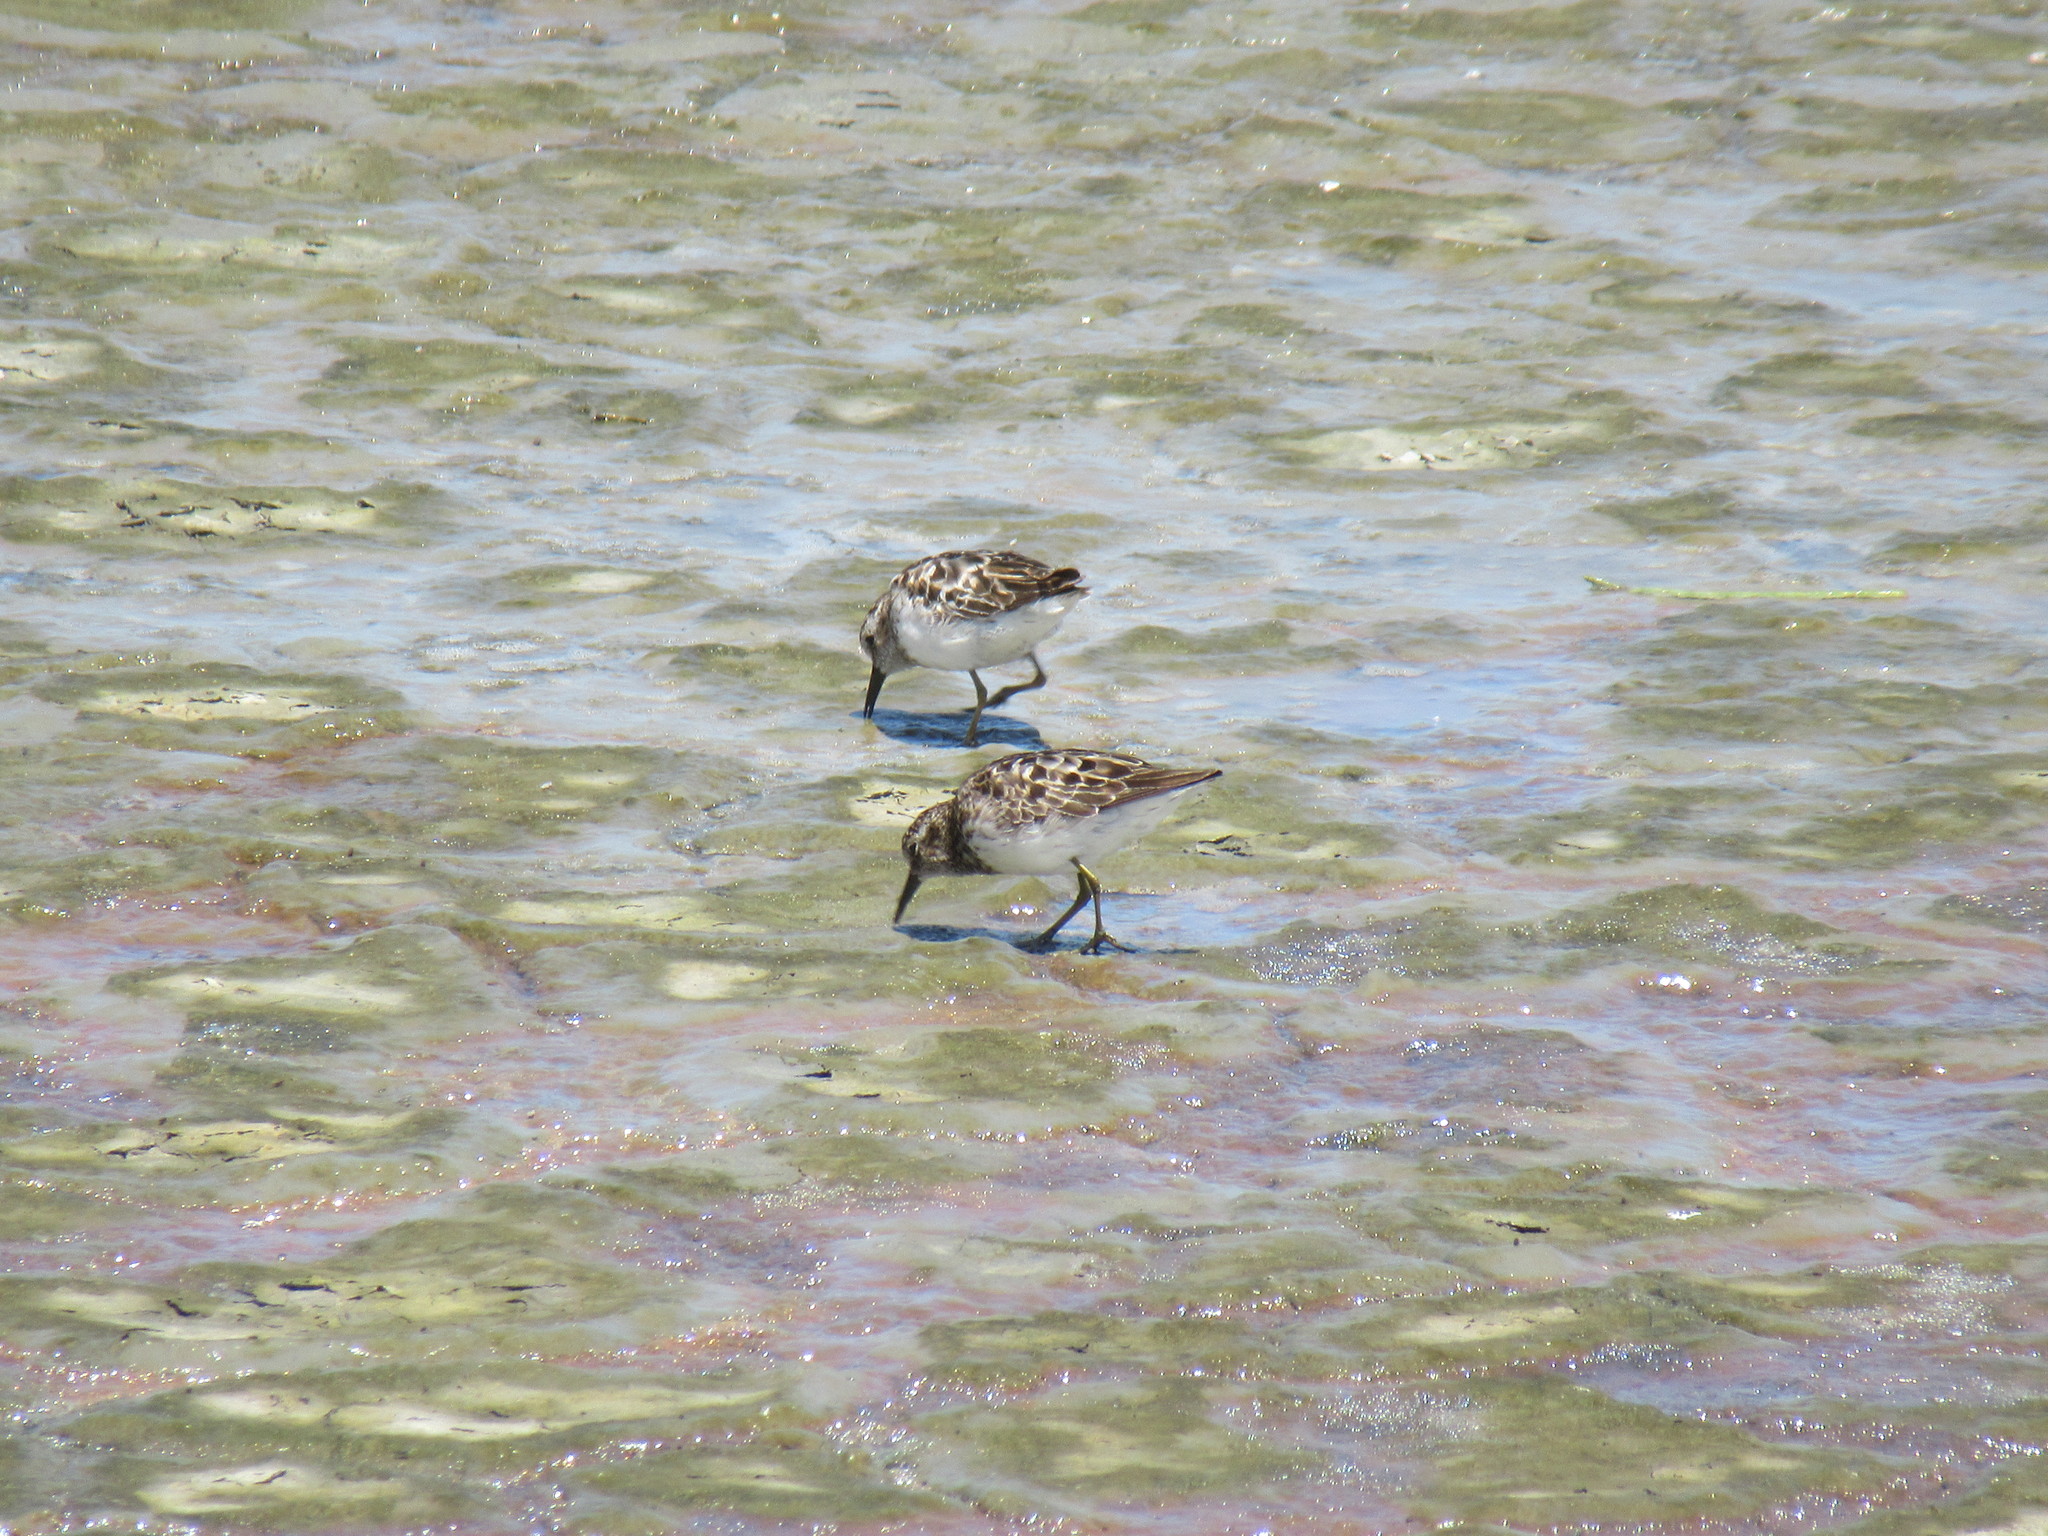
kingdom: Animalia
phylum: Chordata
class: Aves
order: Charadriiformes
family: Scolopacidae
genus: Calidris
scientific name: Calidris minutilla
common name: Least sandpiper
